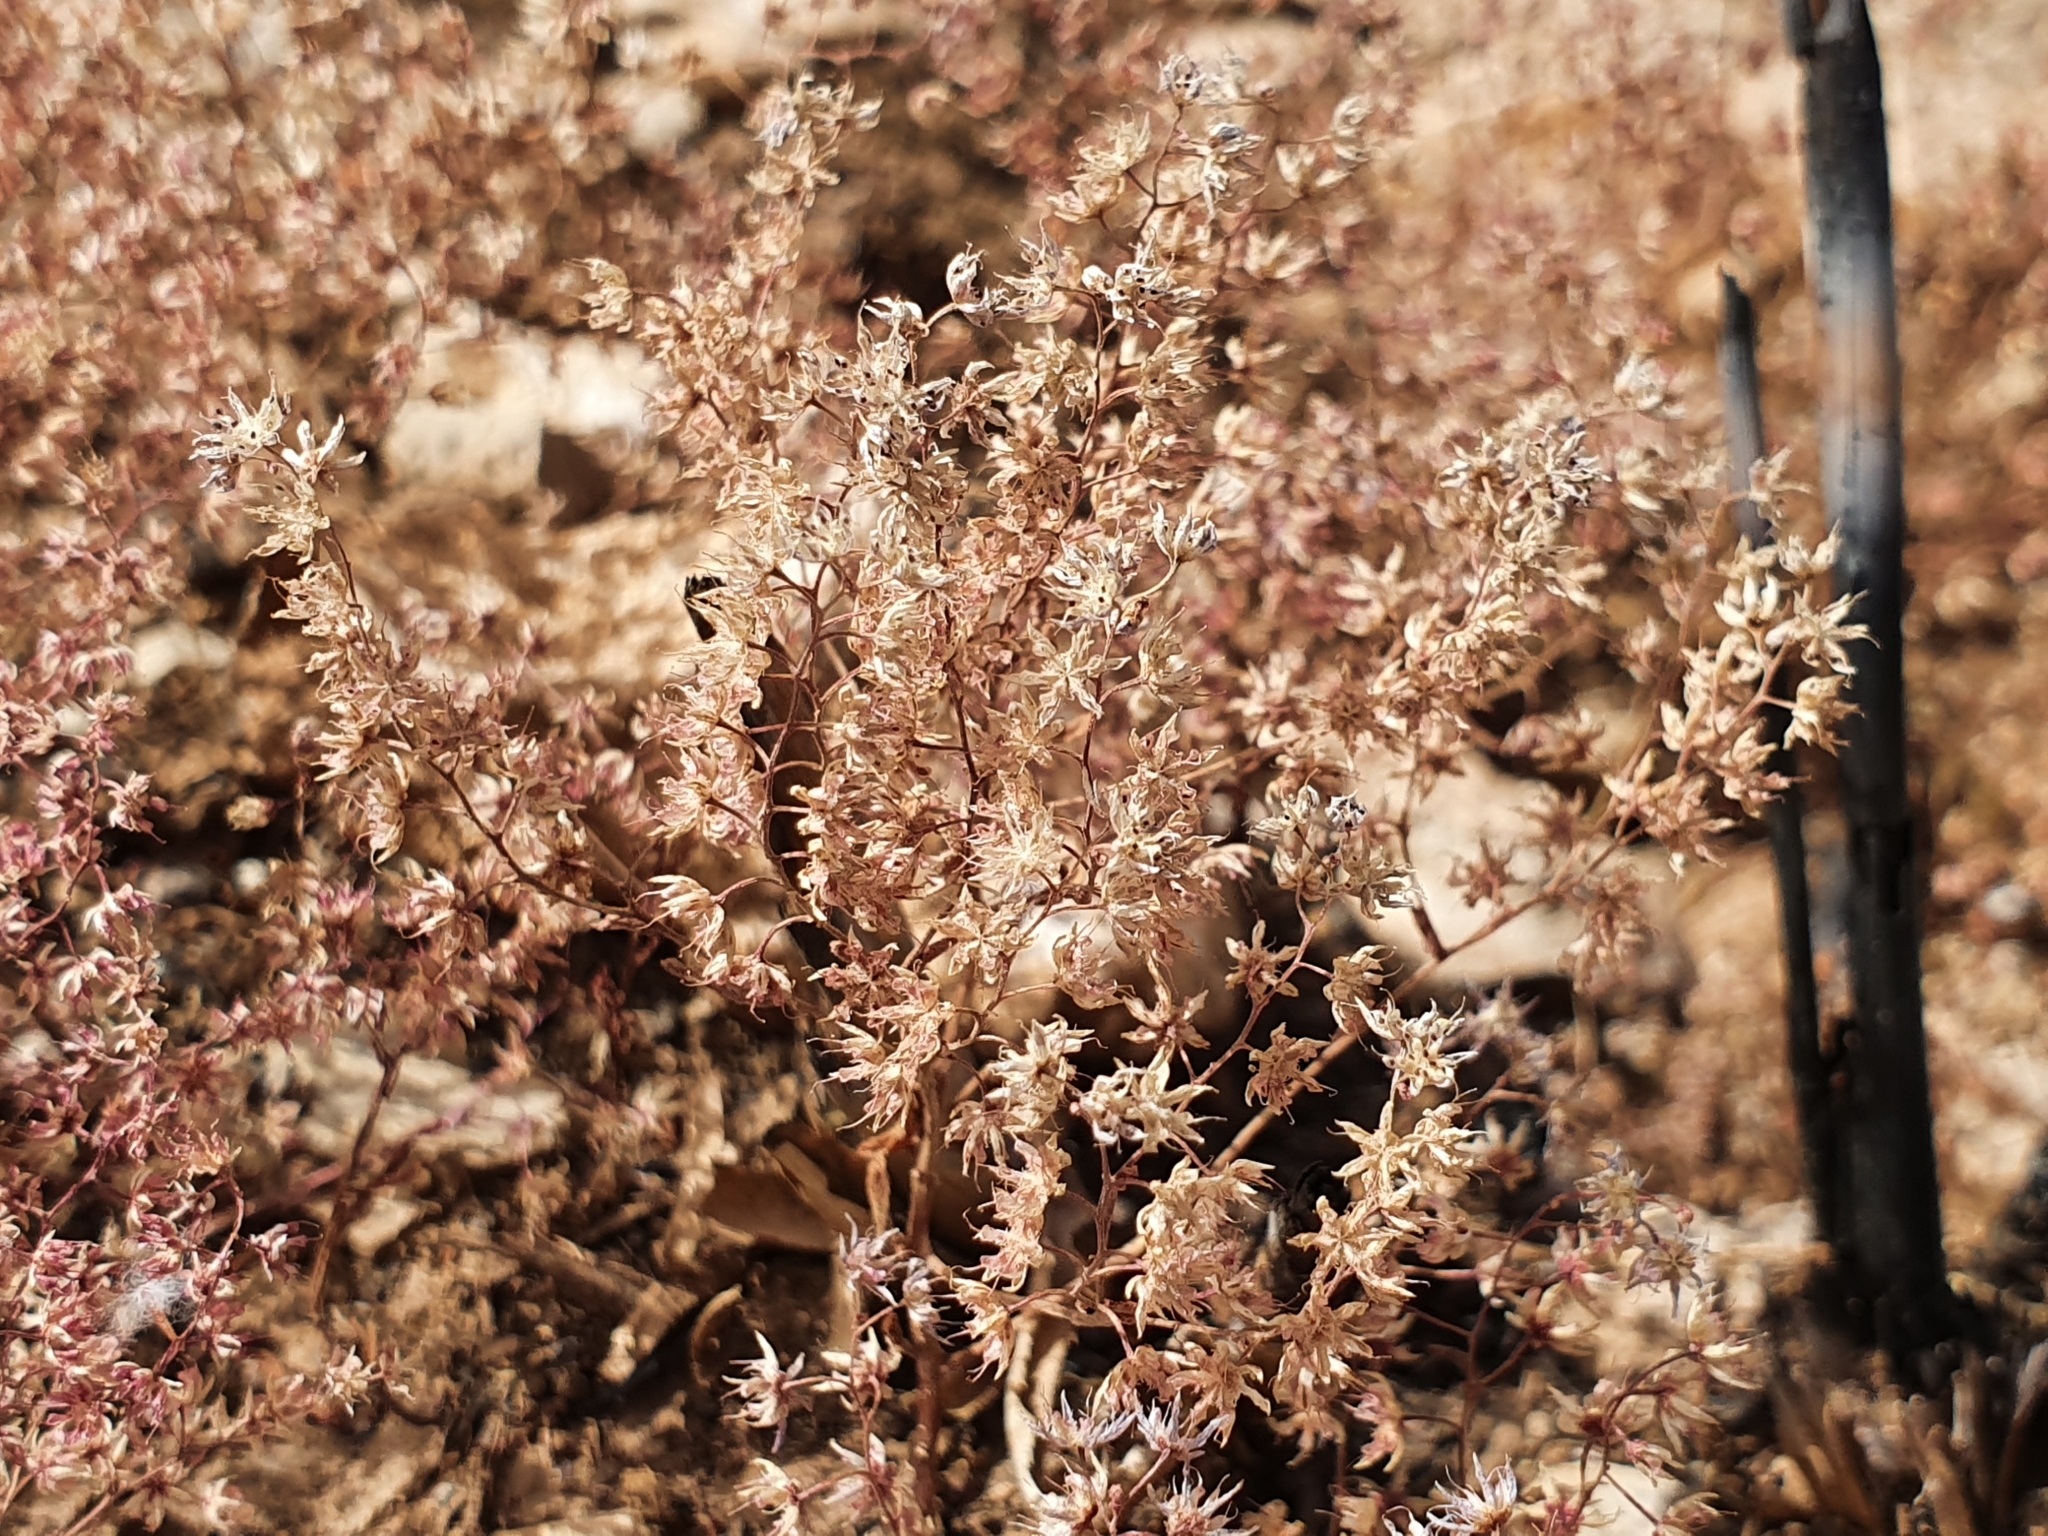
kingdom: Plantae
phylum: Tracheophyta
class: Magnoliopsida
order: Saxifragales
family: Crassulaceae
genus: Sedum
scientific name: Sedum caeruleum
